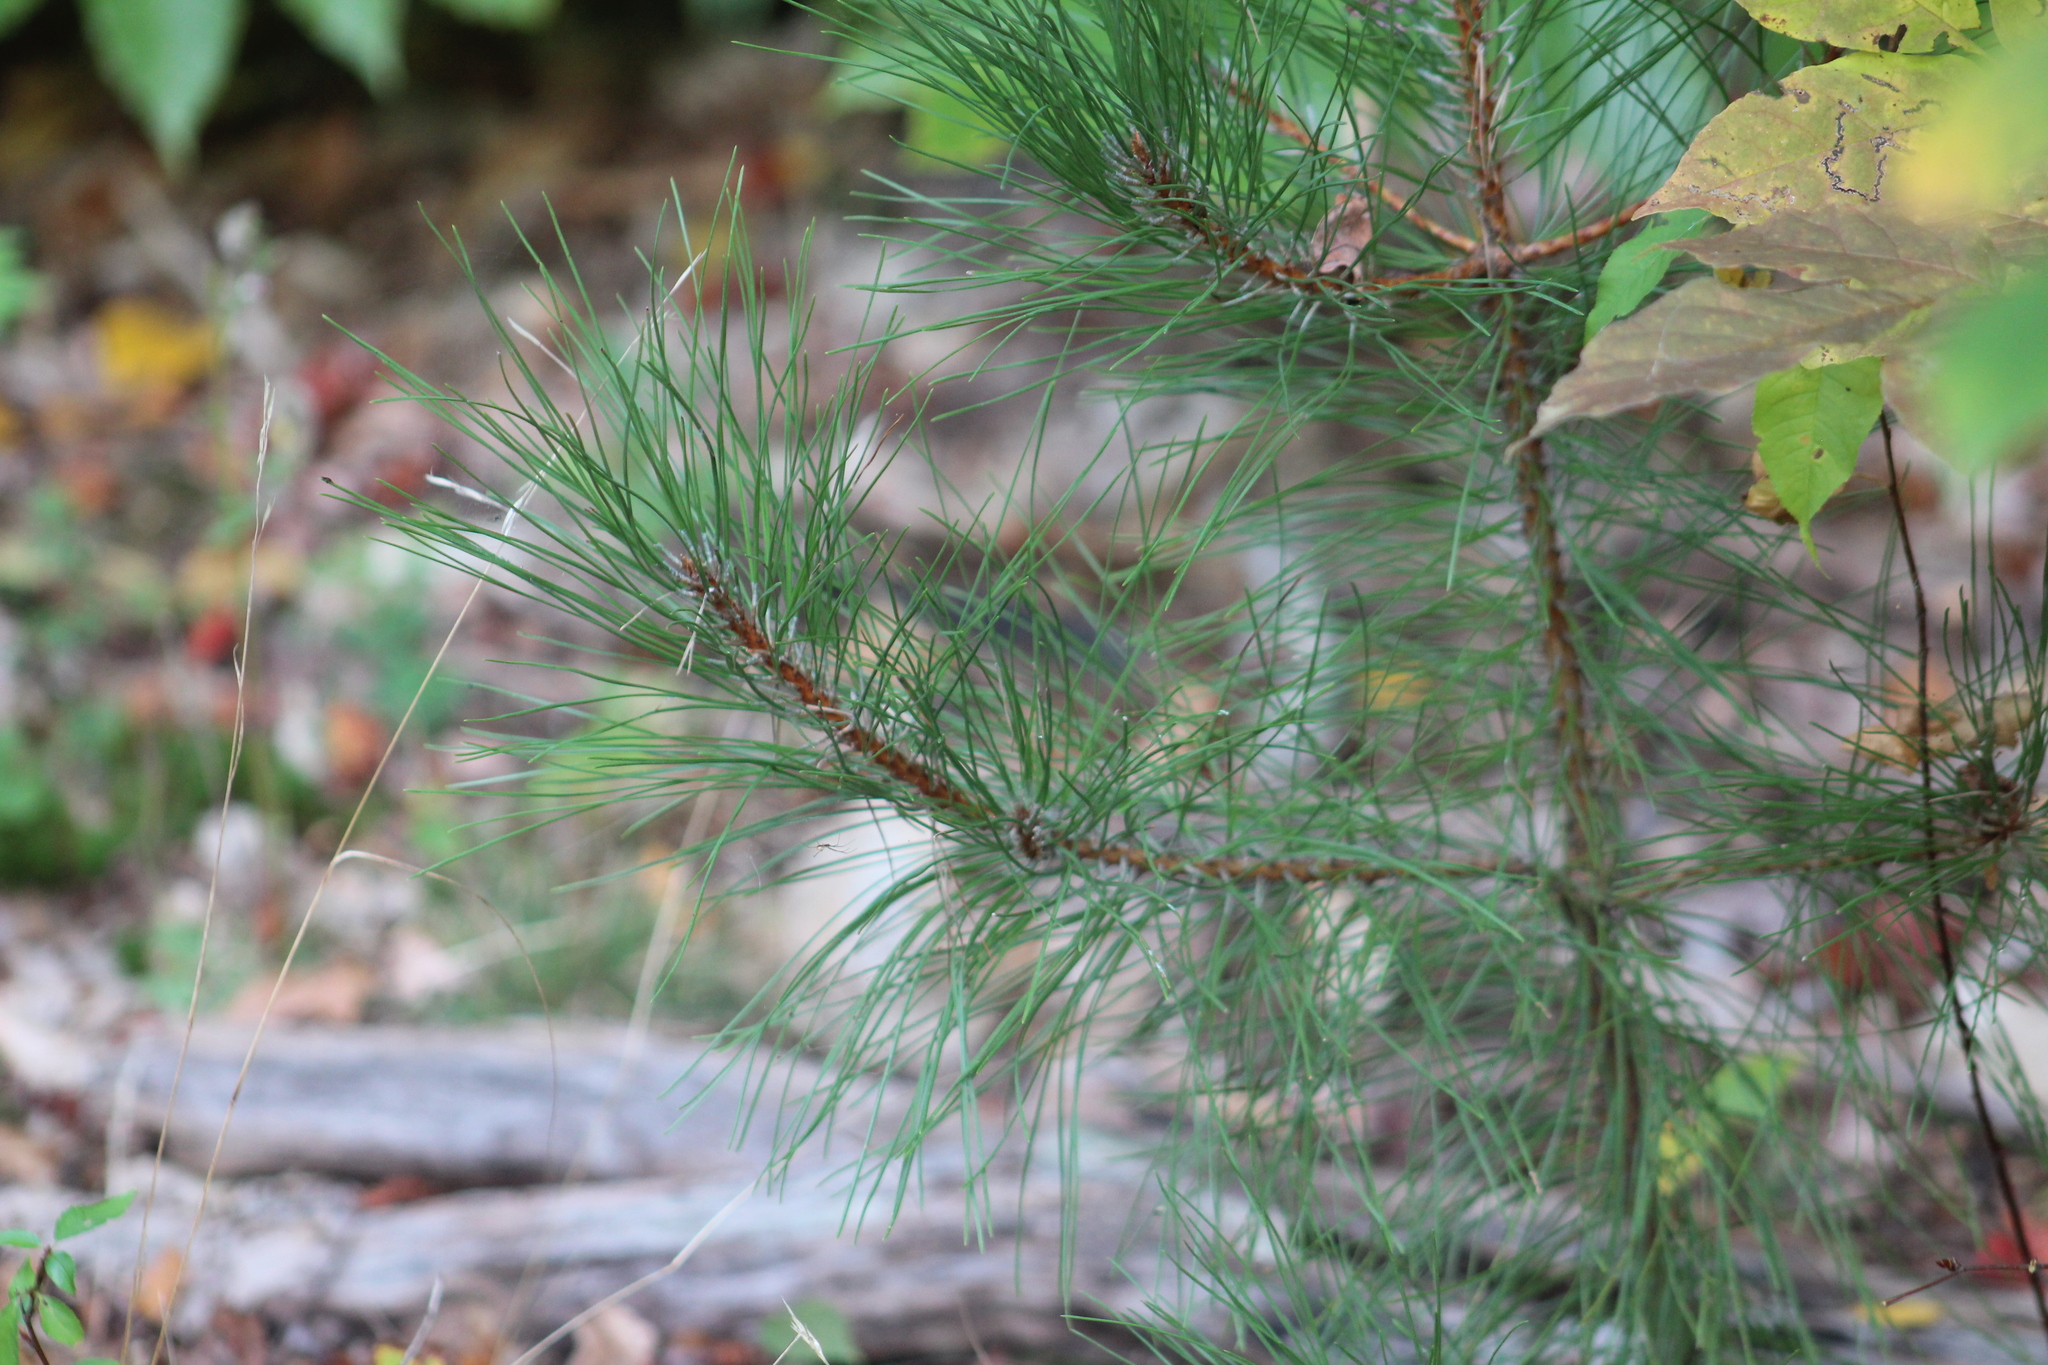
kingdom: Plantae
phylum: Tracheophyta
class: Pinopsida
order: Pinales
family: Pinaceae
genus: Pinus
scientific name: Pinus resinosa
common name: Norway pine
